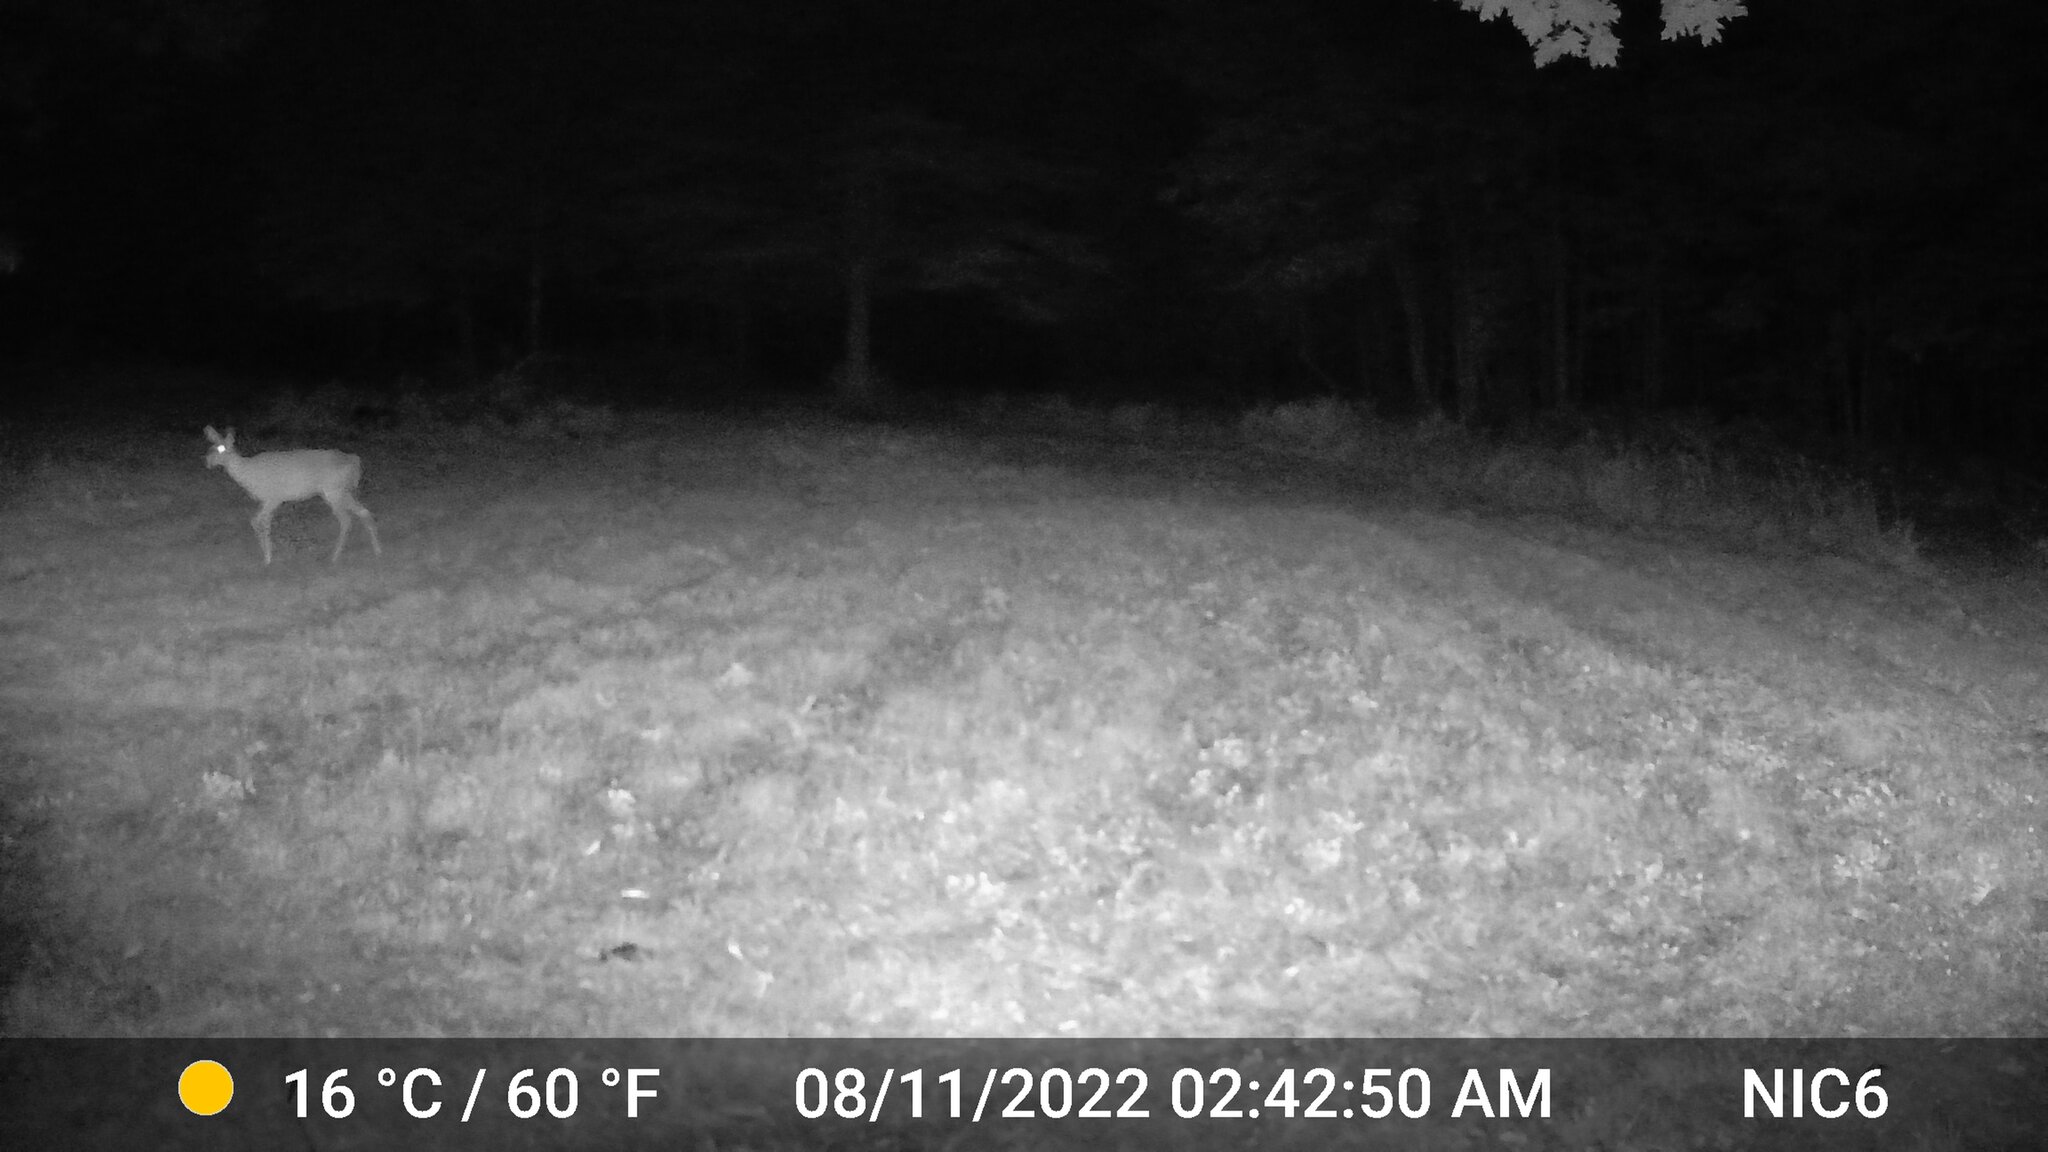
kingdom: Animalia
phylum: Chordata
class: Mammalia
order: Artiodactyla
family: Cervidae
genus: Odocoileus
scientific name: Odocoileus virginianus
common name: White-tailed deer
